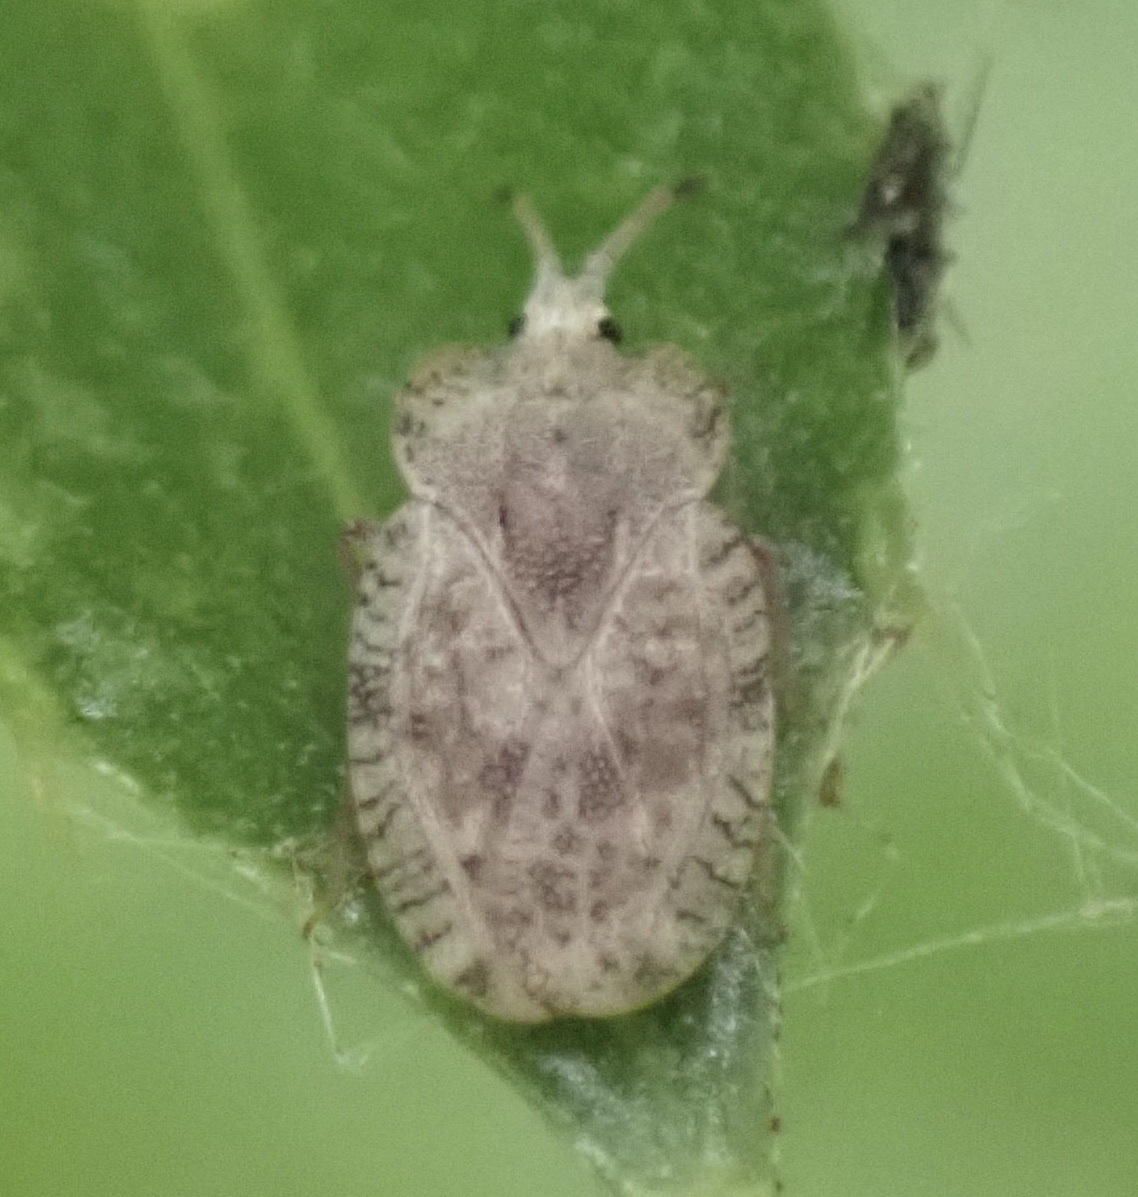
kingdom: Animalia
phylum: Arthropoda
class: Insecta
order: Hemiptera
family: Tingidae
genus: Tingis
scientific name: Tingis ampliata
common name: Creeping thistle lacebug
